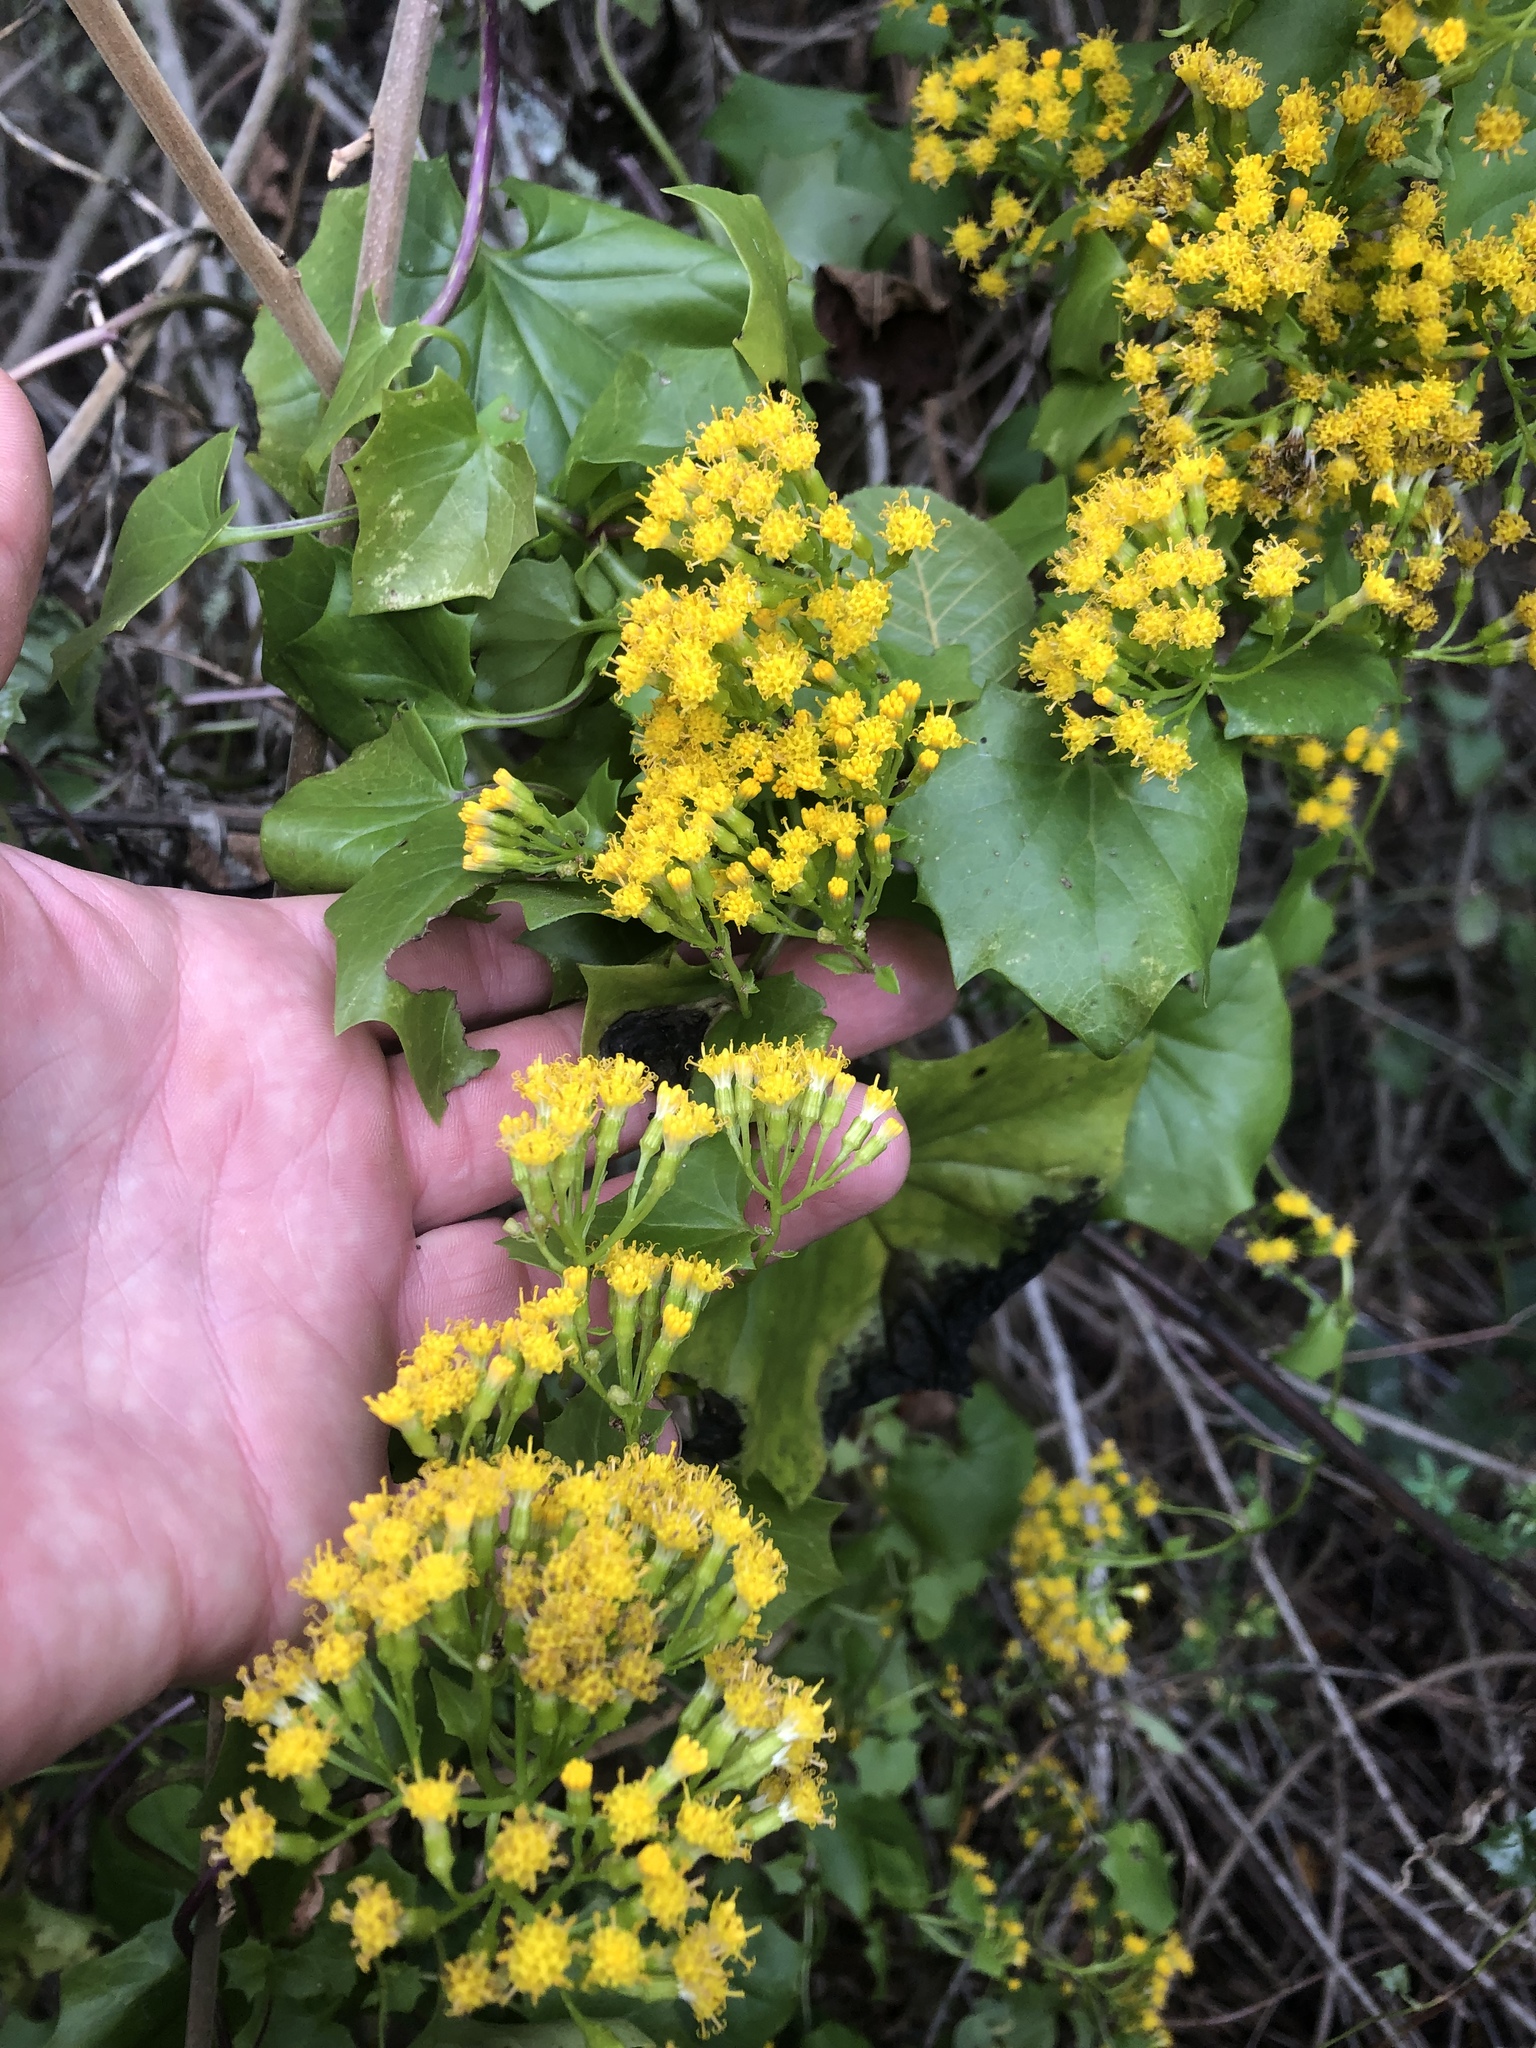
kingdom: Plantae
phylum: Tracheophyta
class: Magnoliopsida
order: Asterales
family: Asteraceae
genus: Delairea
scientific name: Delairea odorata
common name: Cape-ivy
